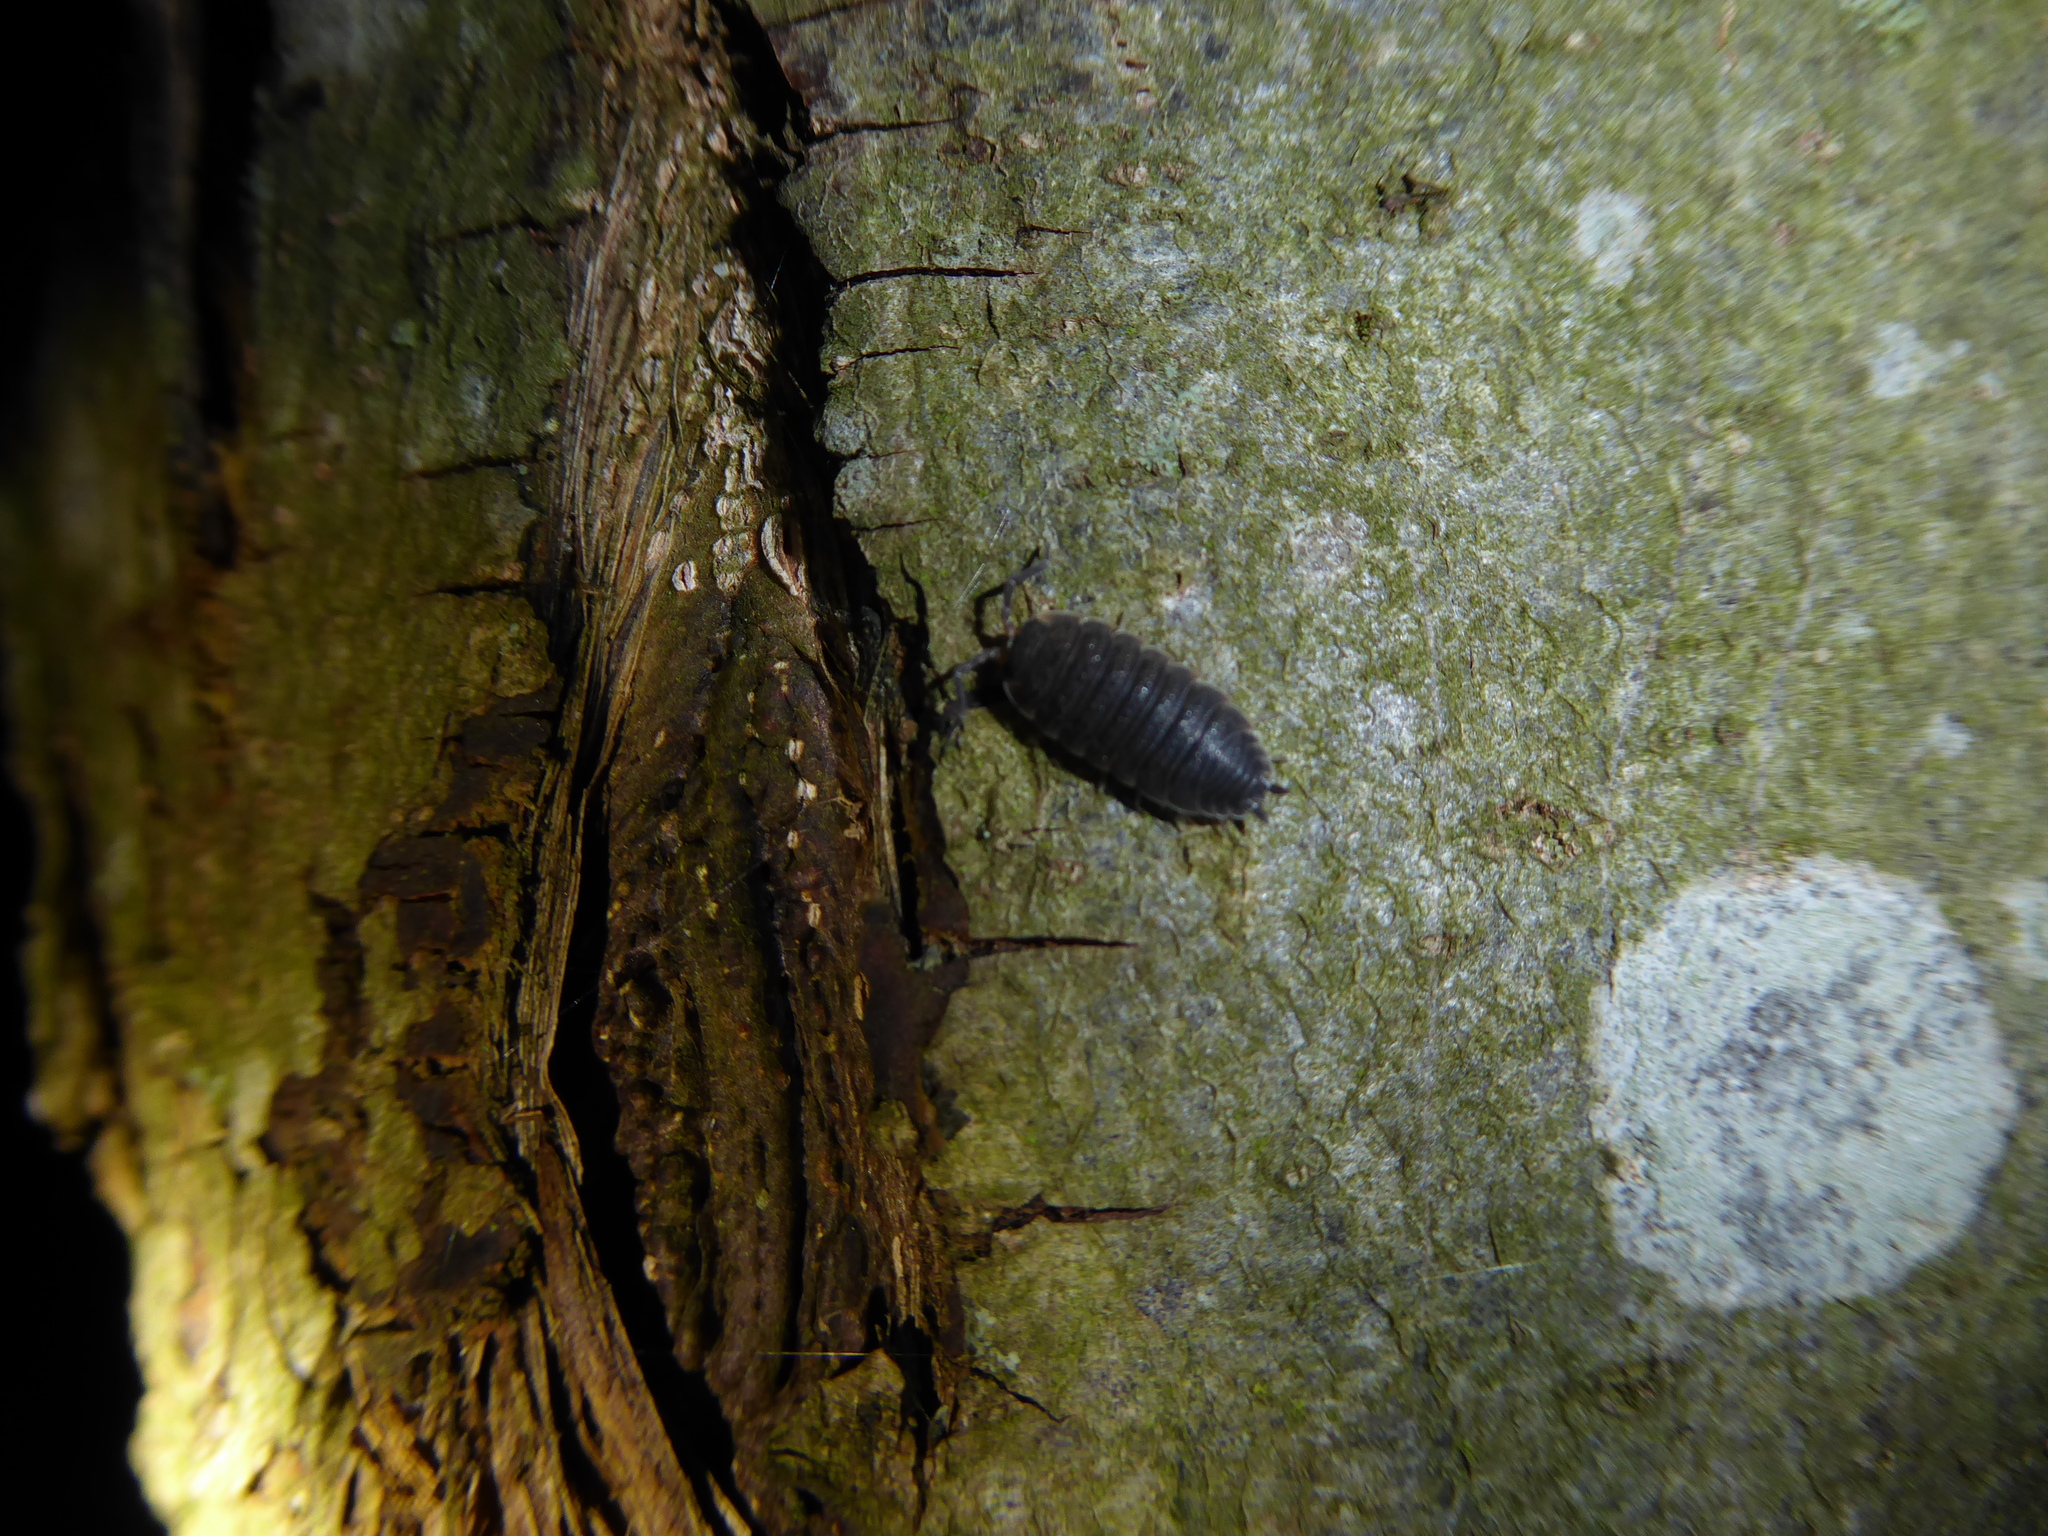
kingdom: Animalia
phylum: Arthropoda
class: Malacostraca
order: Isopoda
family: Porcellionidae
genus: Porcellio
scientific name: Porcellio scaber
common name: Common rough woodlouse
